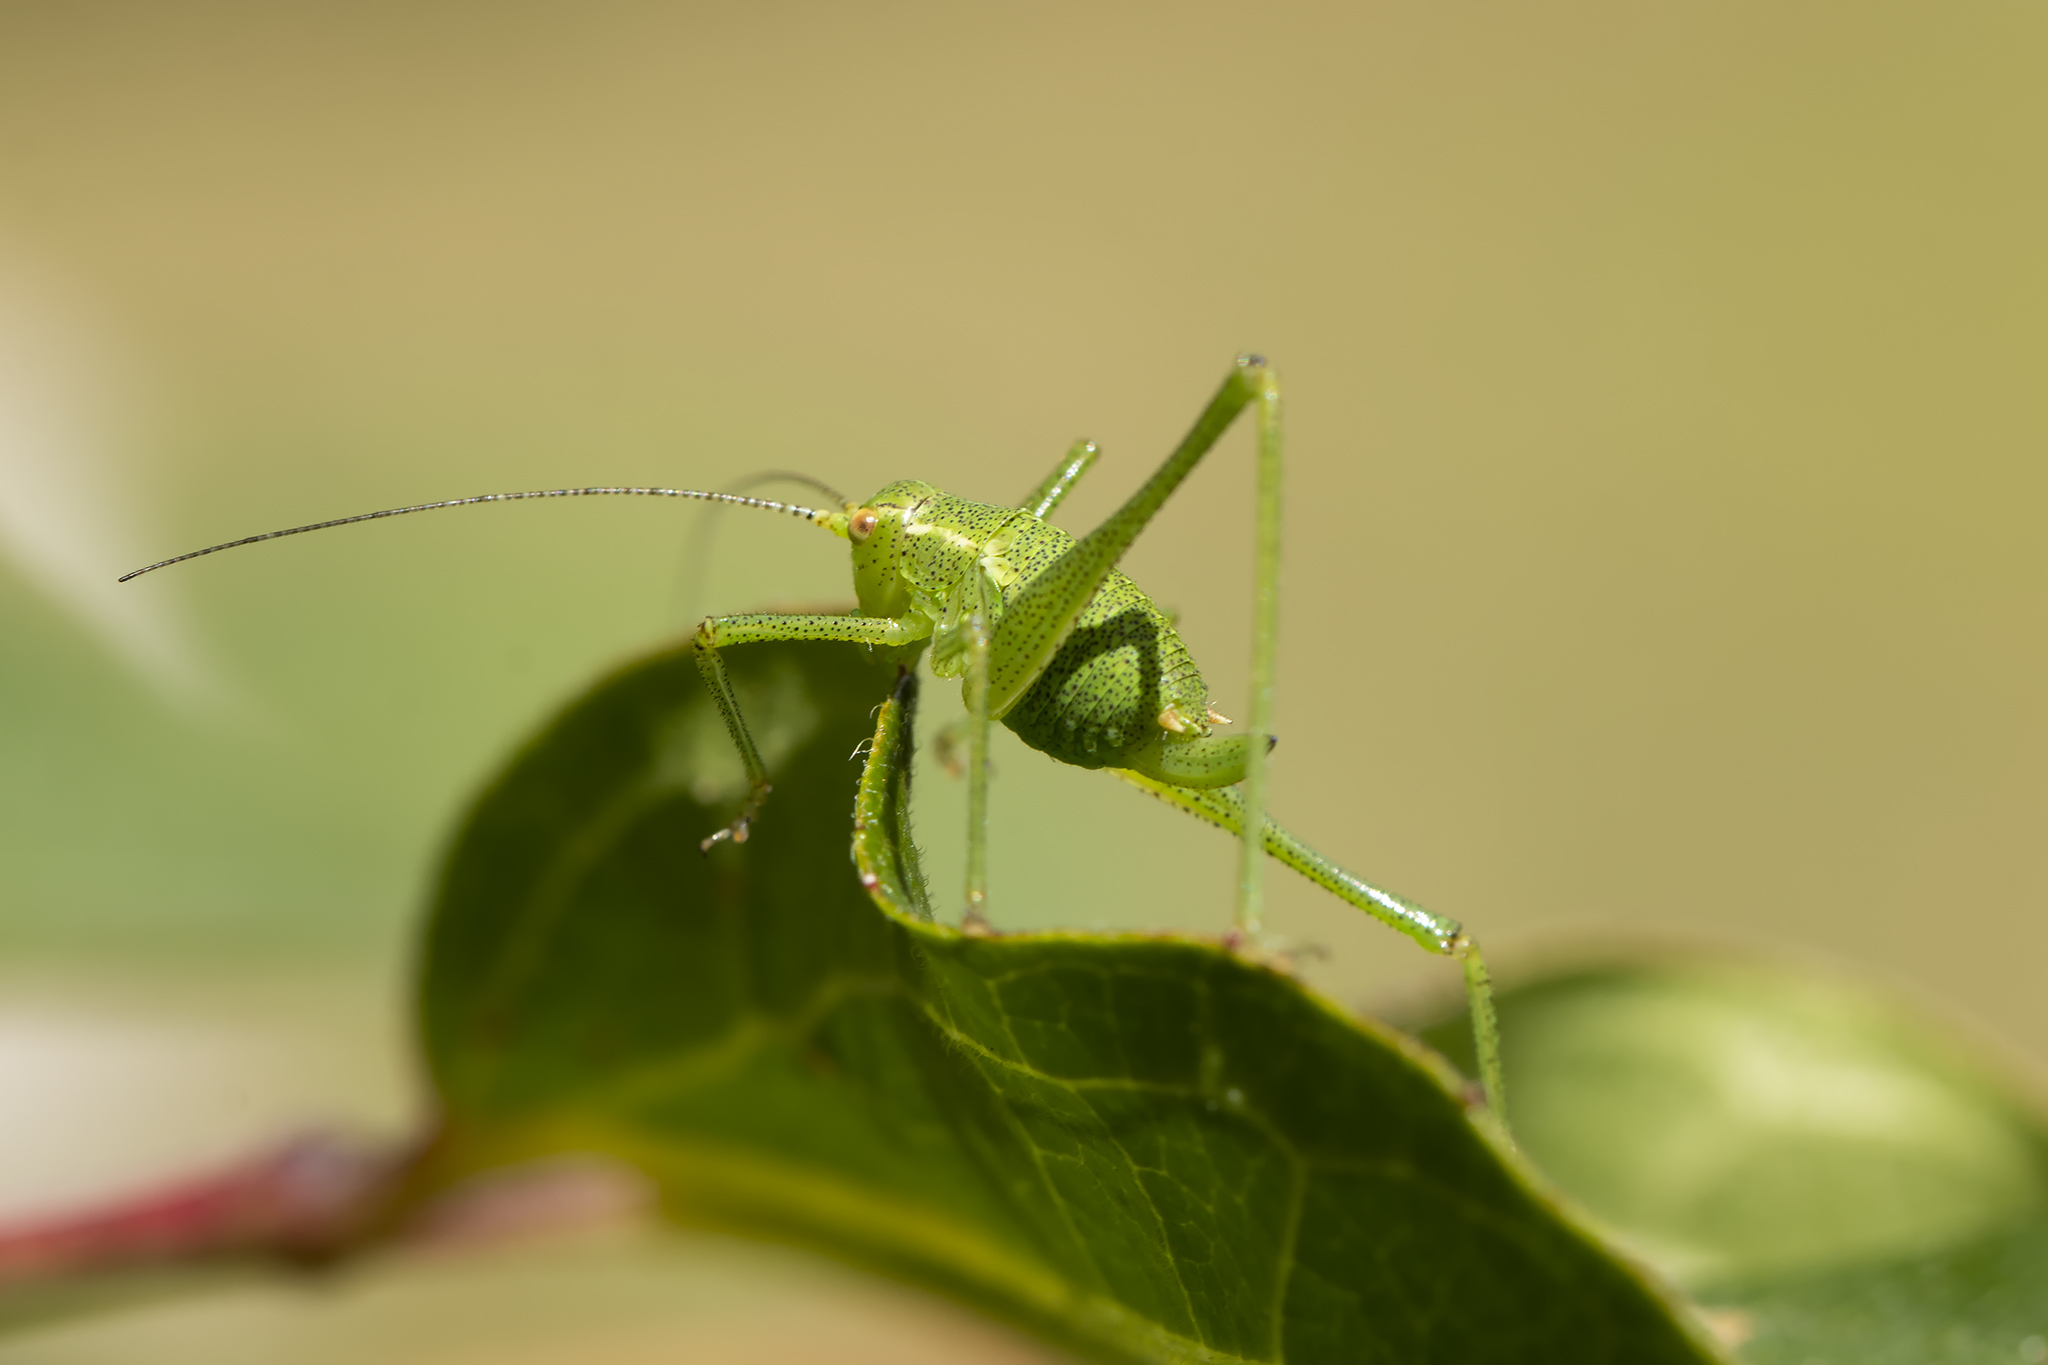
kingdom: Animalia
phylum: Arthropoda
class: Insecta
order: Orthoptera
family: Tettigoniidae
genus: Leptophyes
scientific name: Leptophyes punctatissima
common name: Speckled bush-cricket
